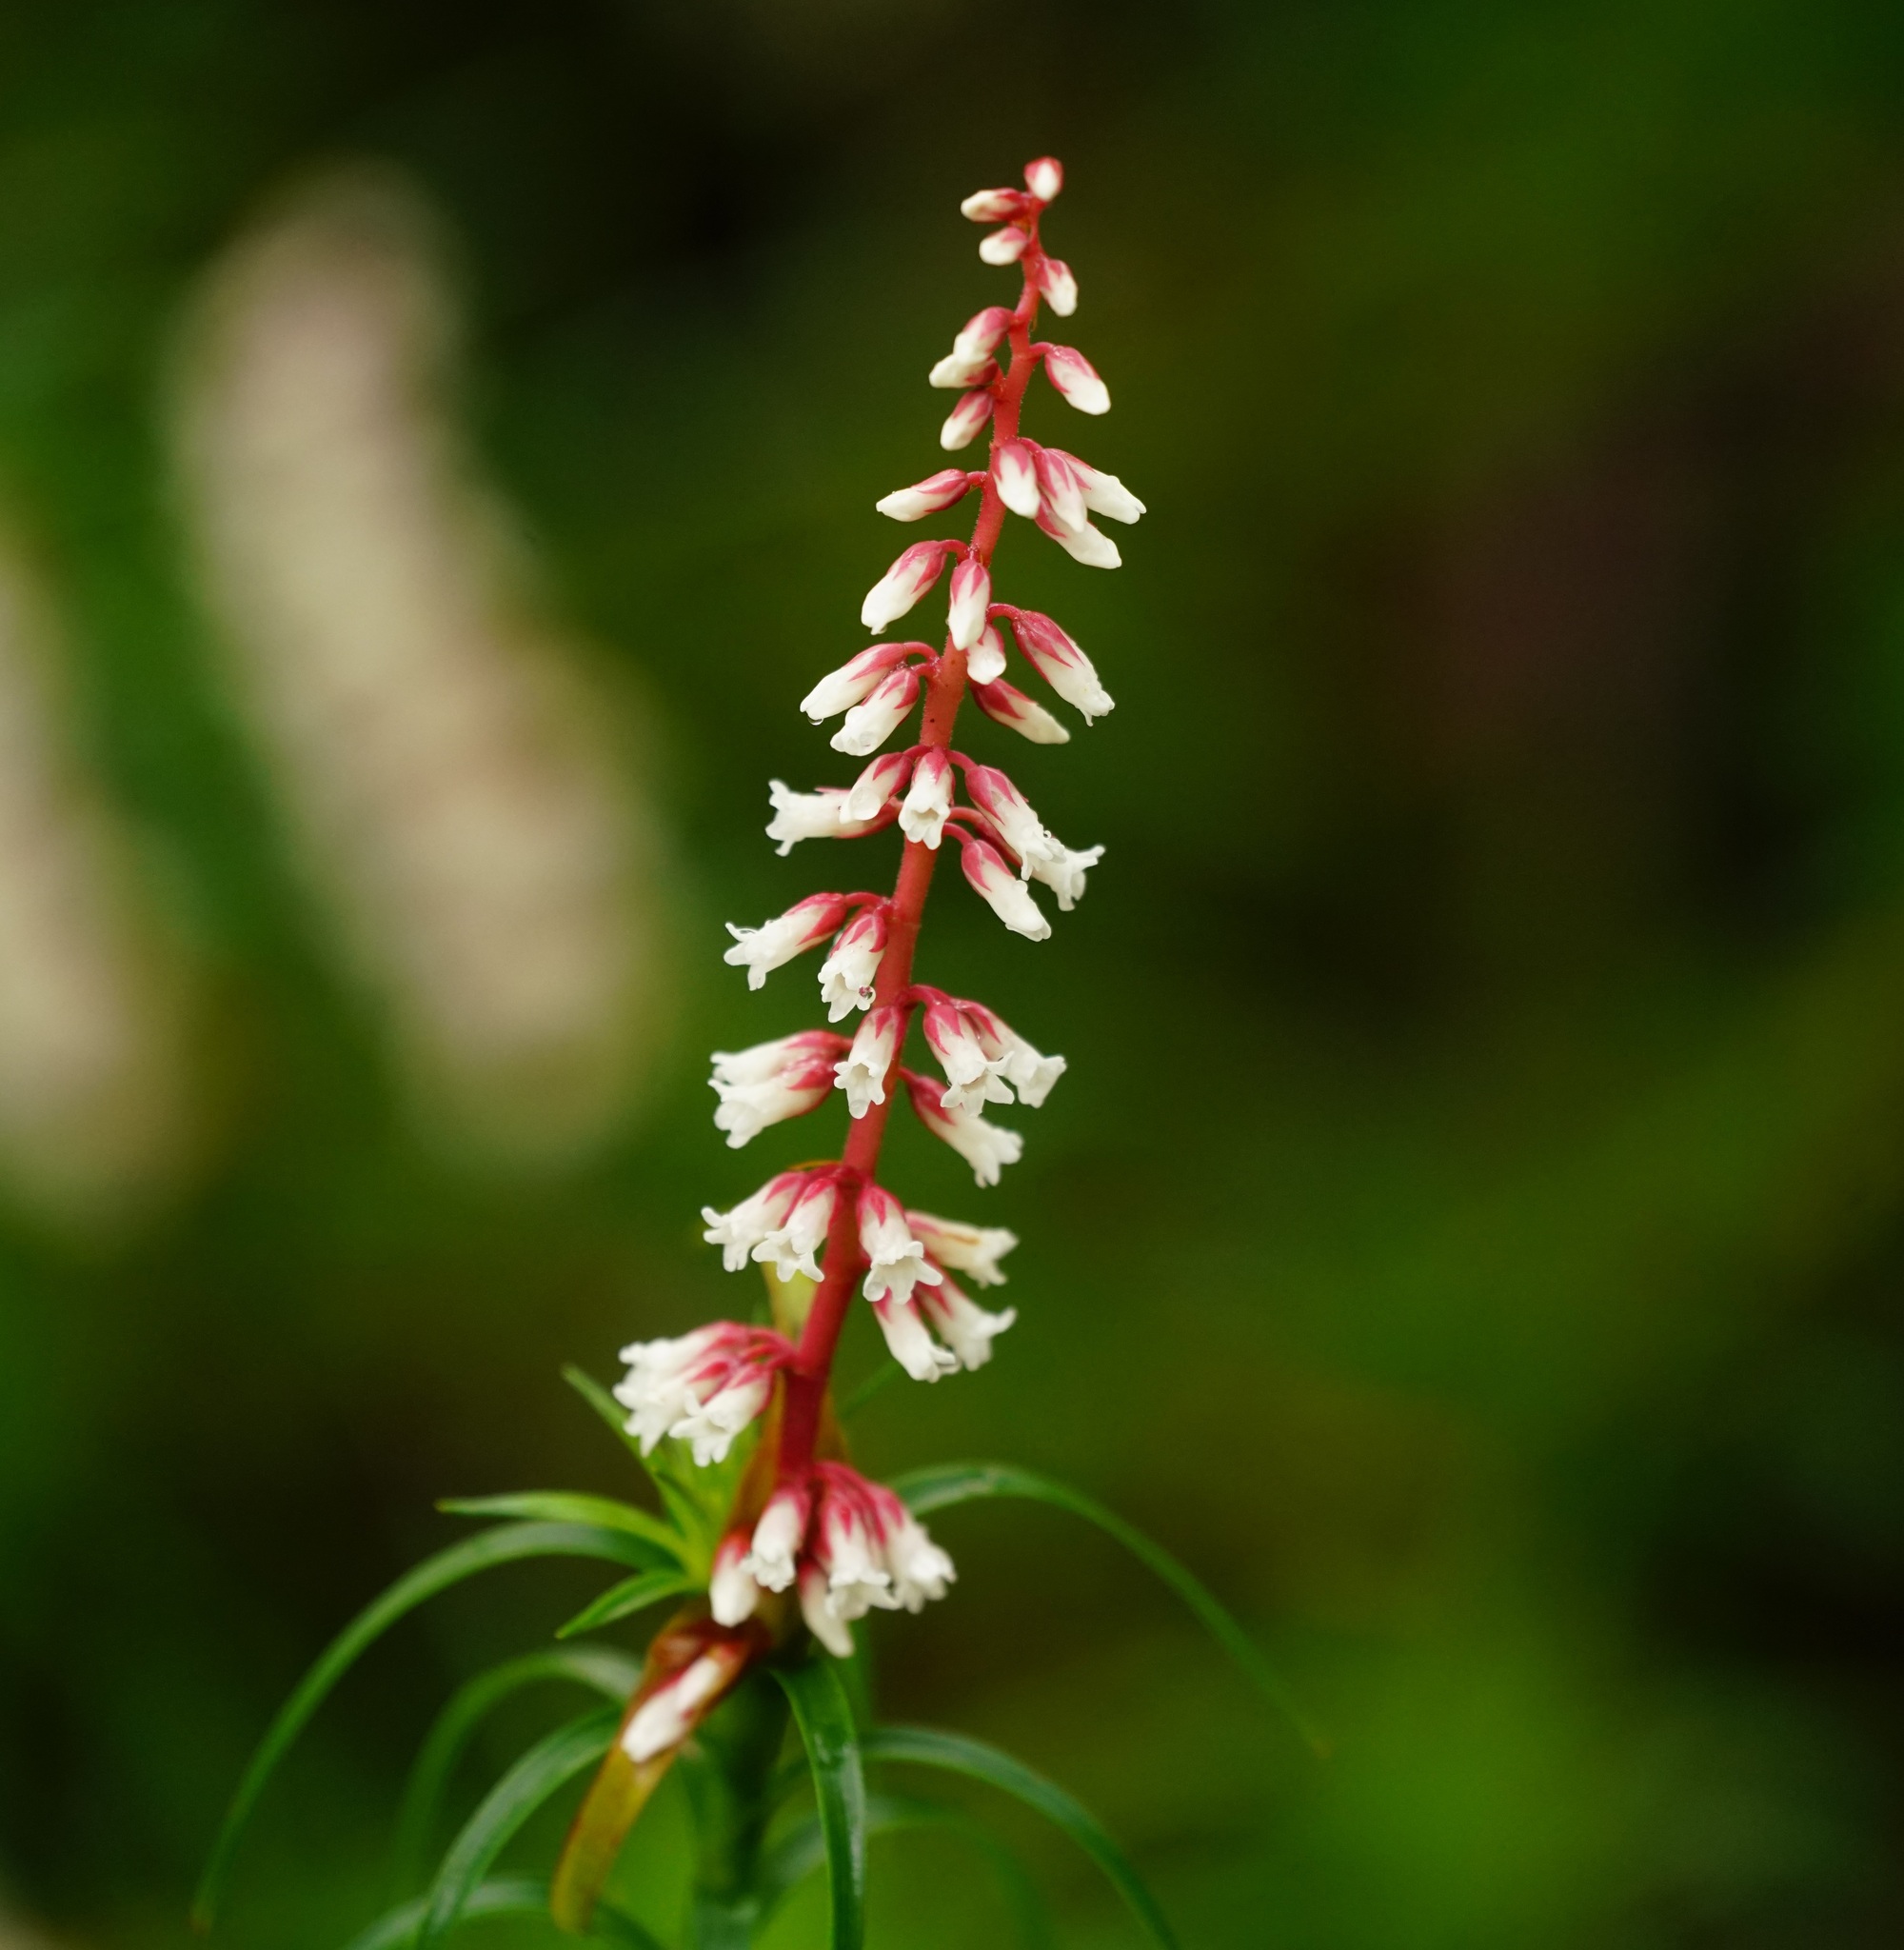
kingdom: Plantae
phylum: Tracheophyta
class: Magnoliopsida
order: Ericales
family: Ericaceae
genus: Dracophyllum
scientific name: Dracophyllum secundum
